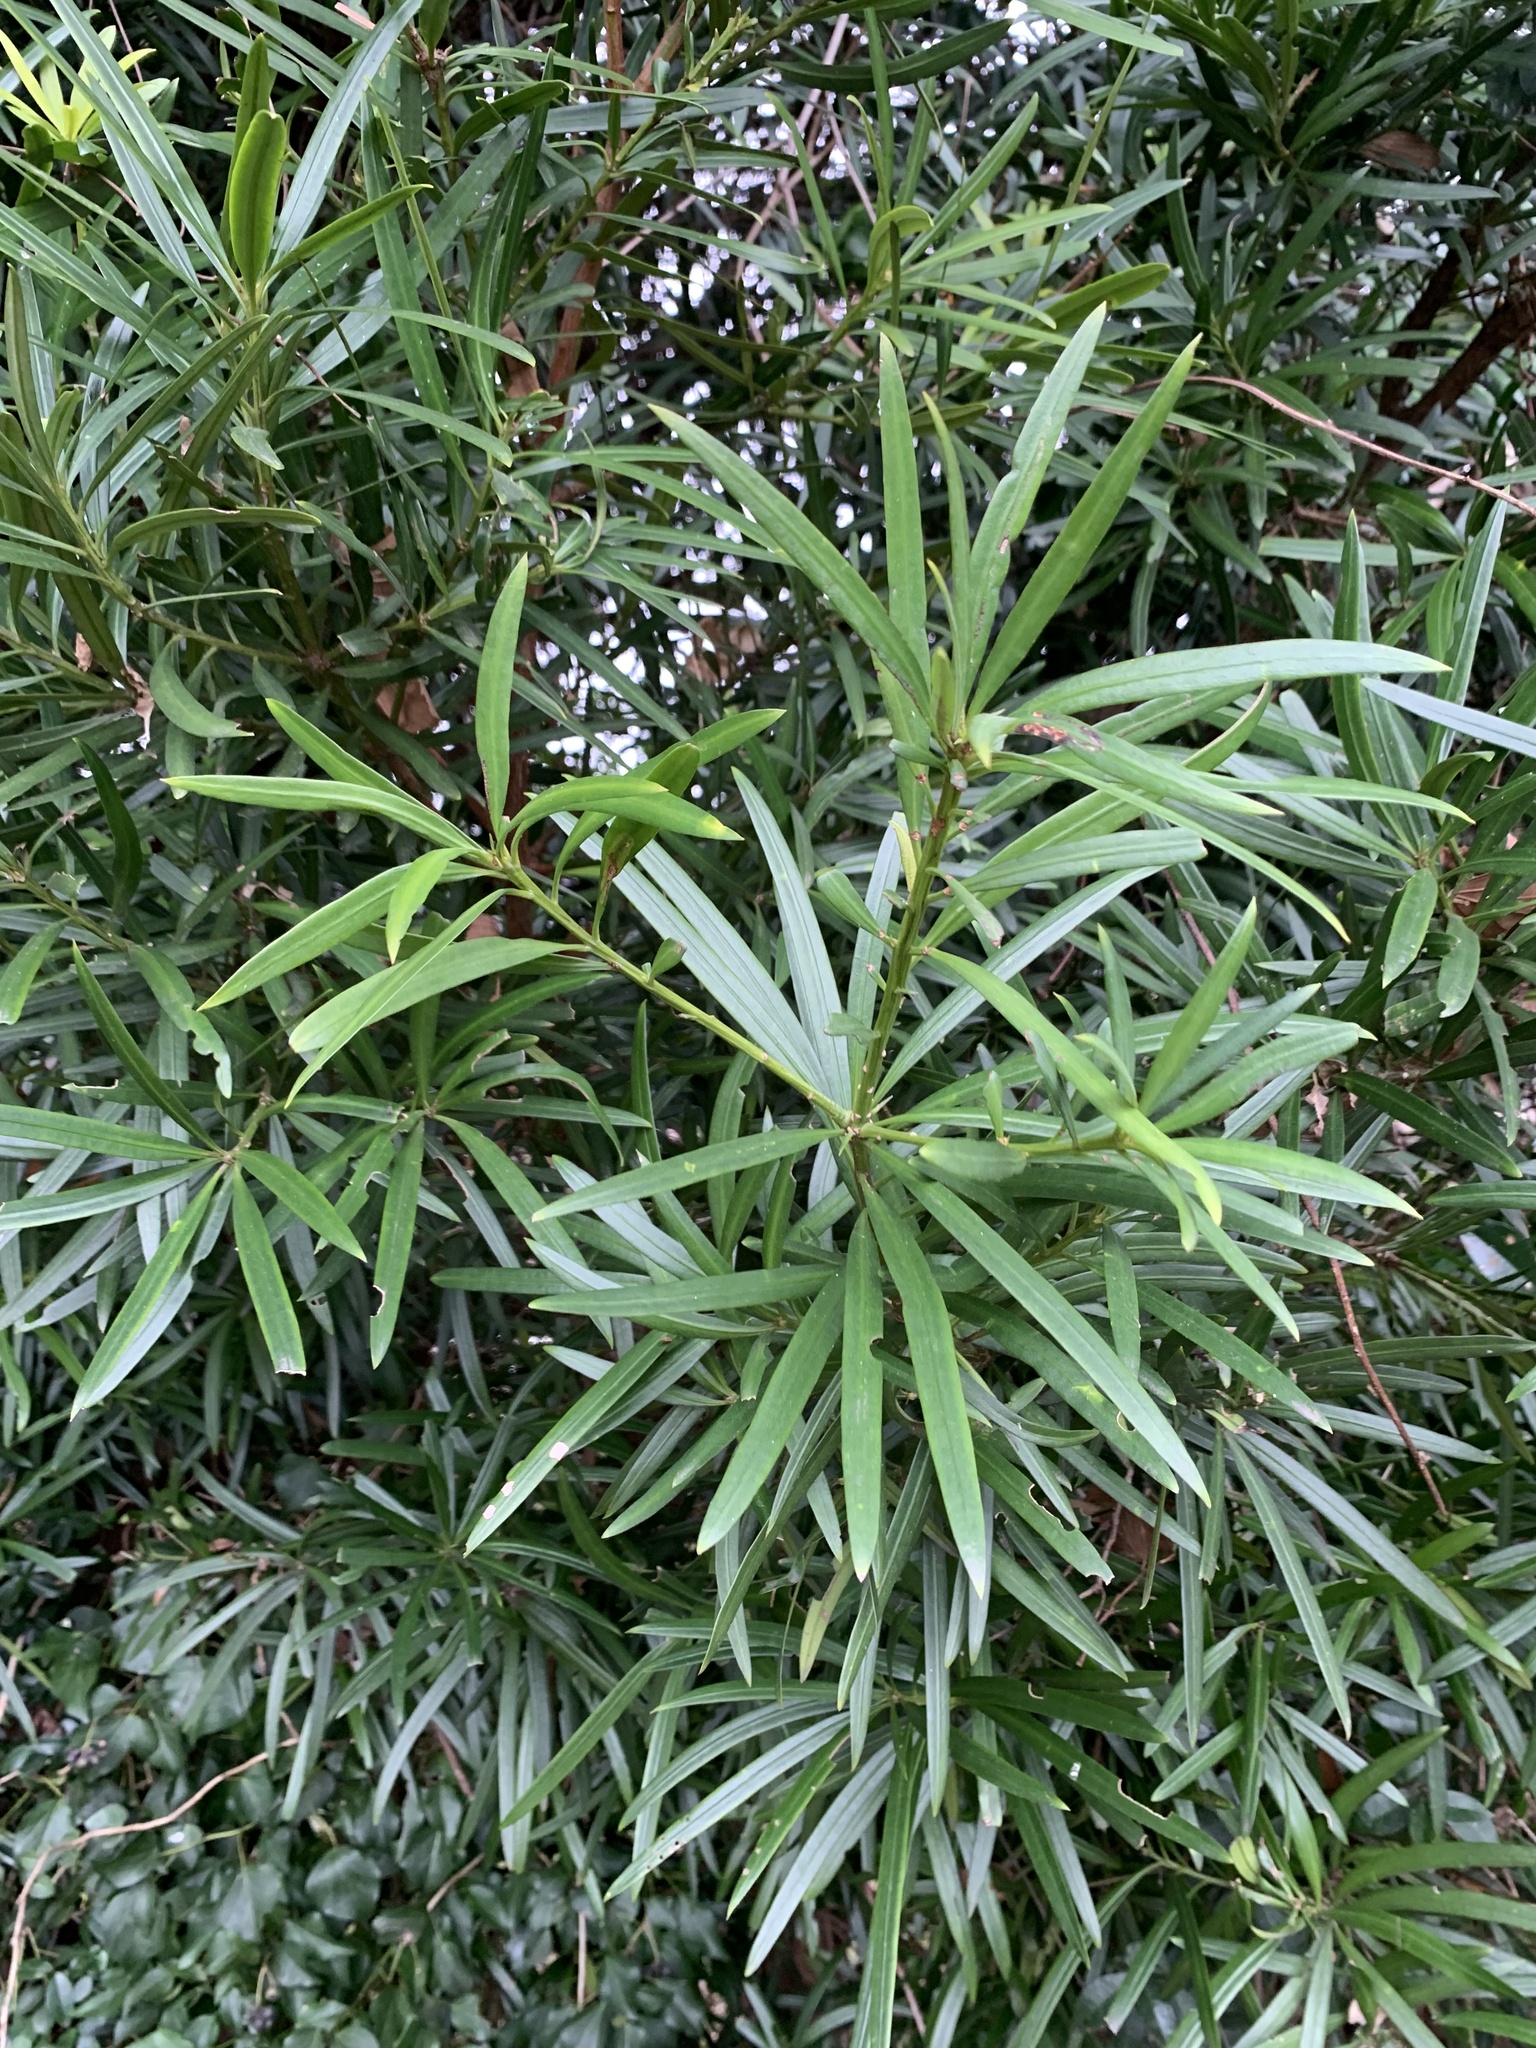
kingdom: Plantae
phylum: Tracheophyta
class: Pinopsida
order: Pinales
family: Podocarpaceae
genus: Podocarpus
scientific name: Podocarpus macrophyllus
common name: Japanese yew
